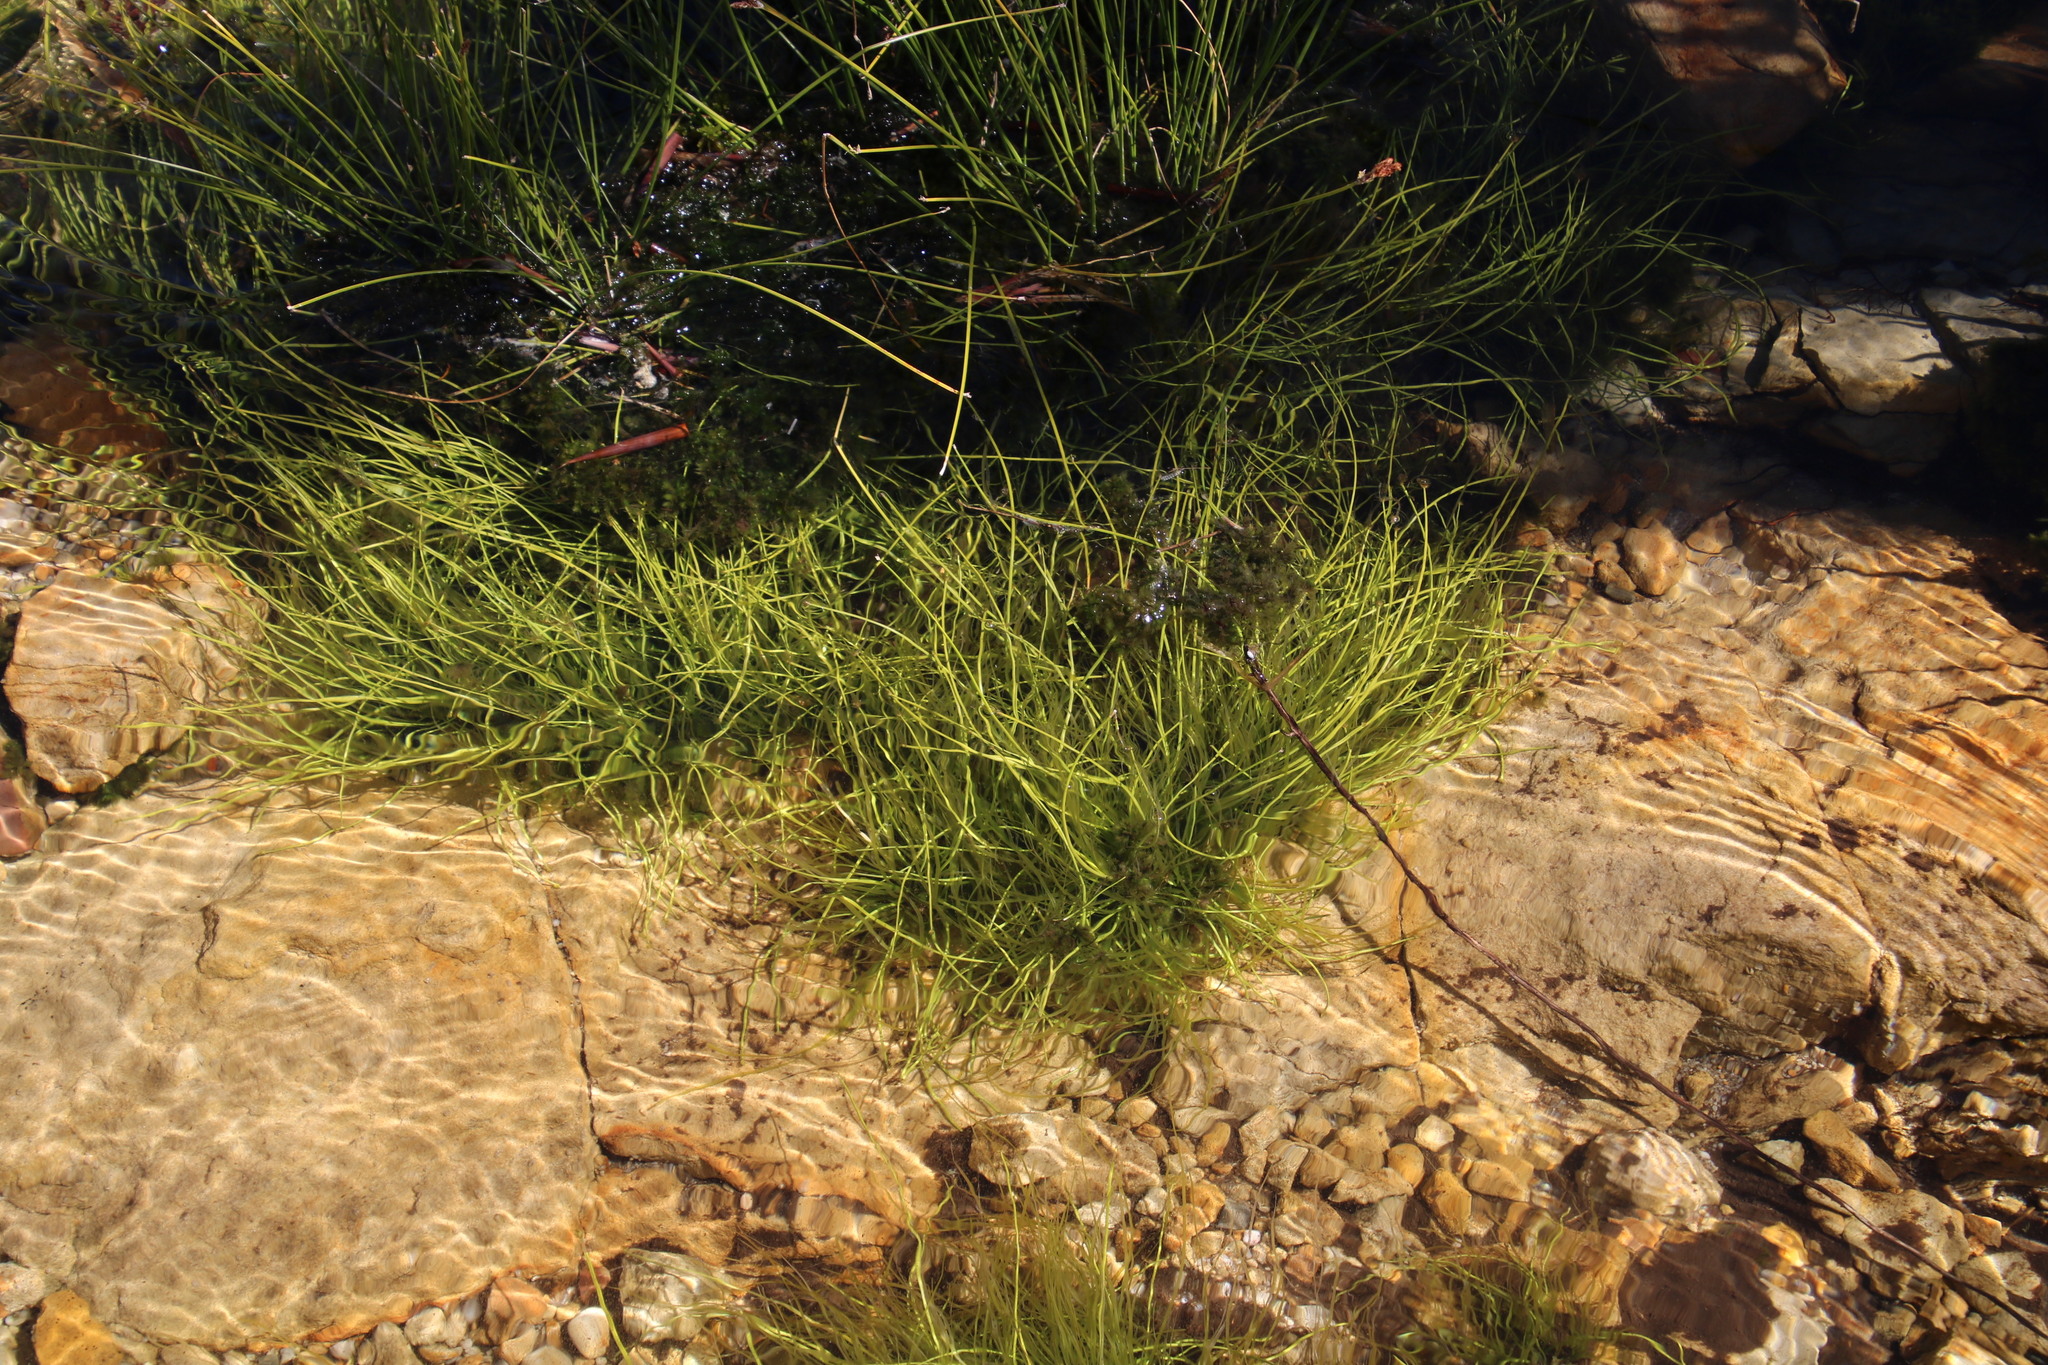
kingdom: Plantae
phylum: Tracheophyta
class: Liliopsida
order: Poales
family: Cyperaceae
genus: Isolepis
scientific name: Isolepis digitata
